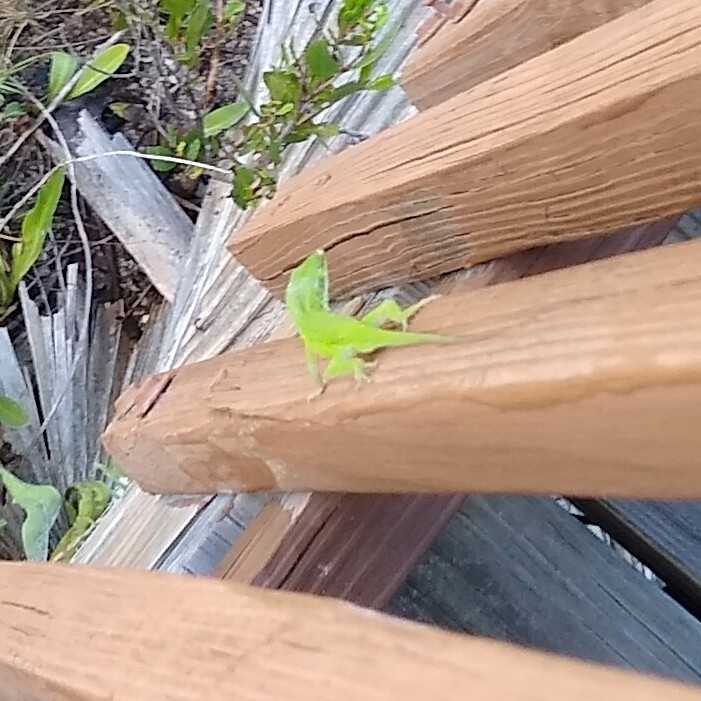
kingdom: Animalia
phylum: Chordata
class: Squamata
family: Dactyloidae
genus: Anolis
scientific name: Anolis carolinensis
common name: Green anole
